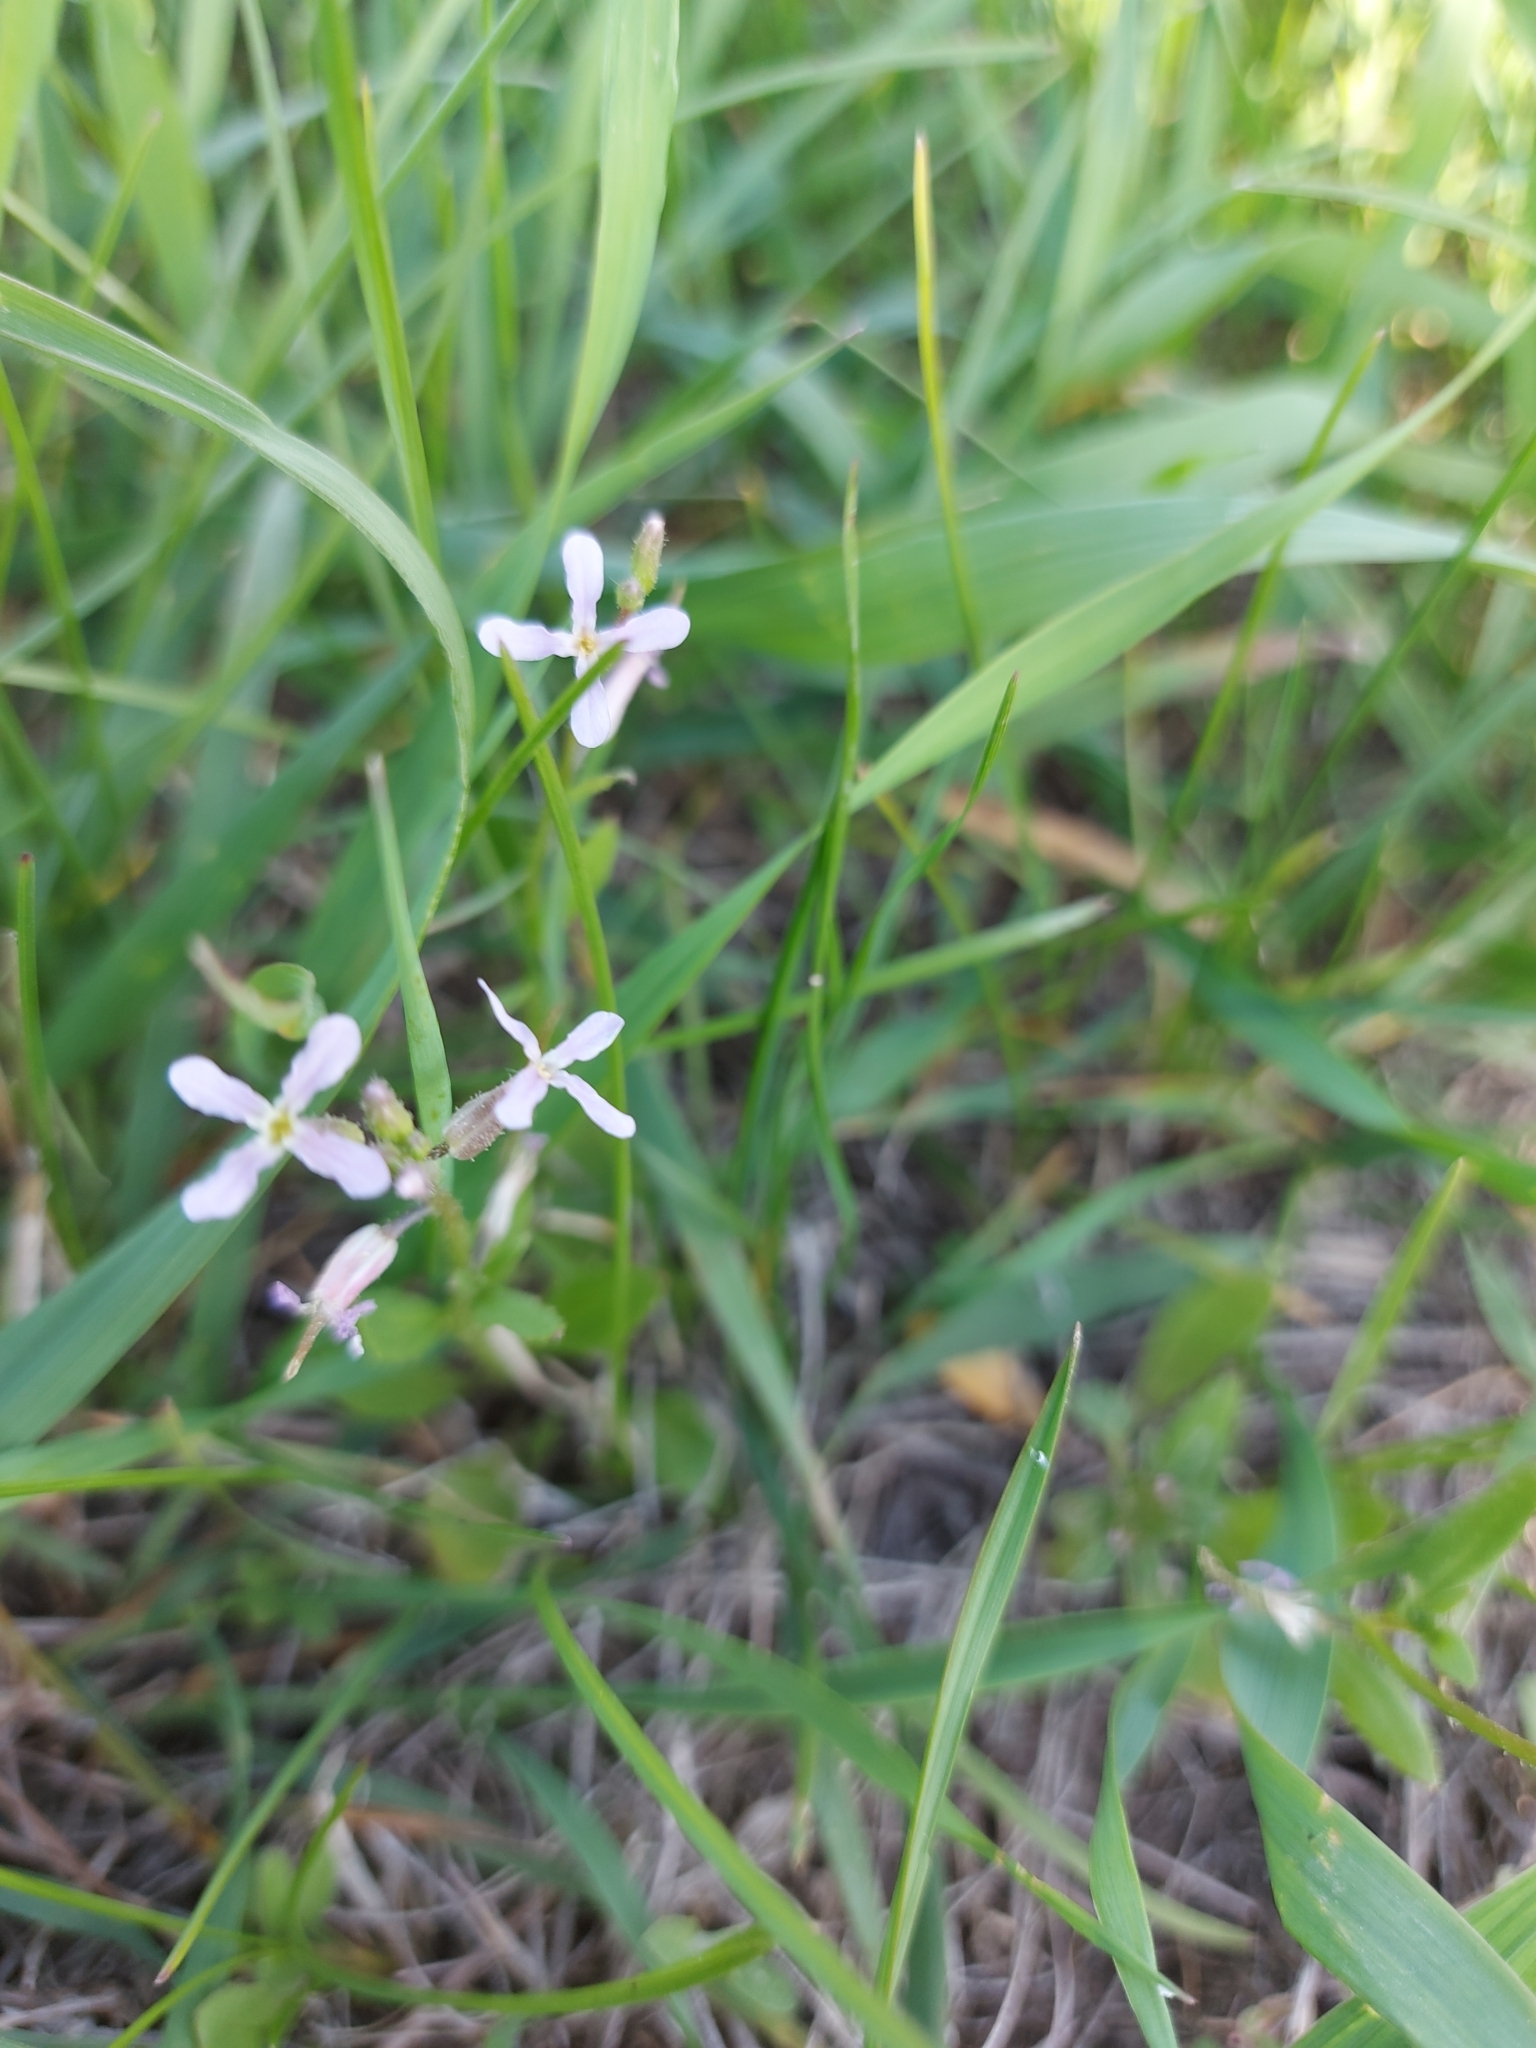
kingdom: Plantae
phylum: Tracheophyta
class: Magnoliopsida
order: Brassicales
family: Brassicaceae
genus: Chorispora
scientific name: Chorispora tenella
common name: Crossflower
